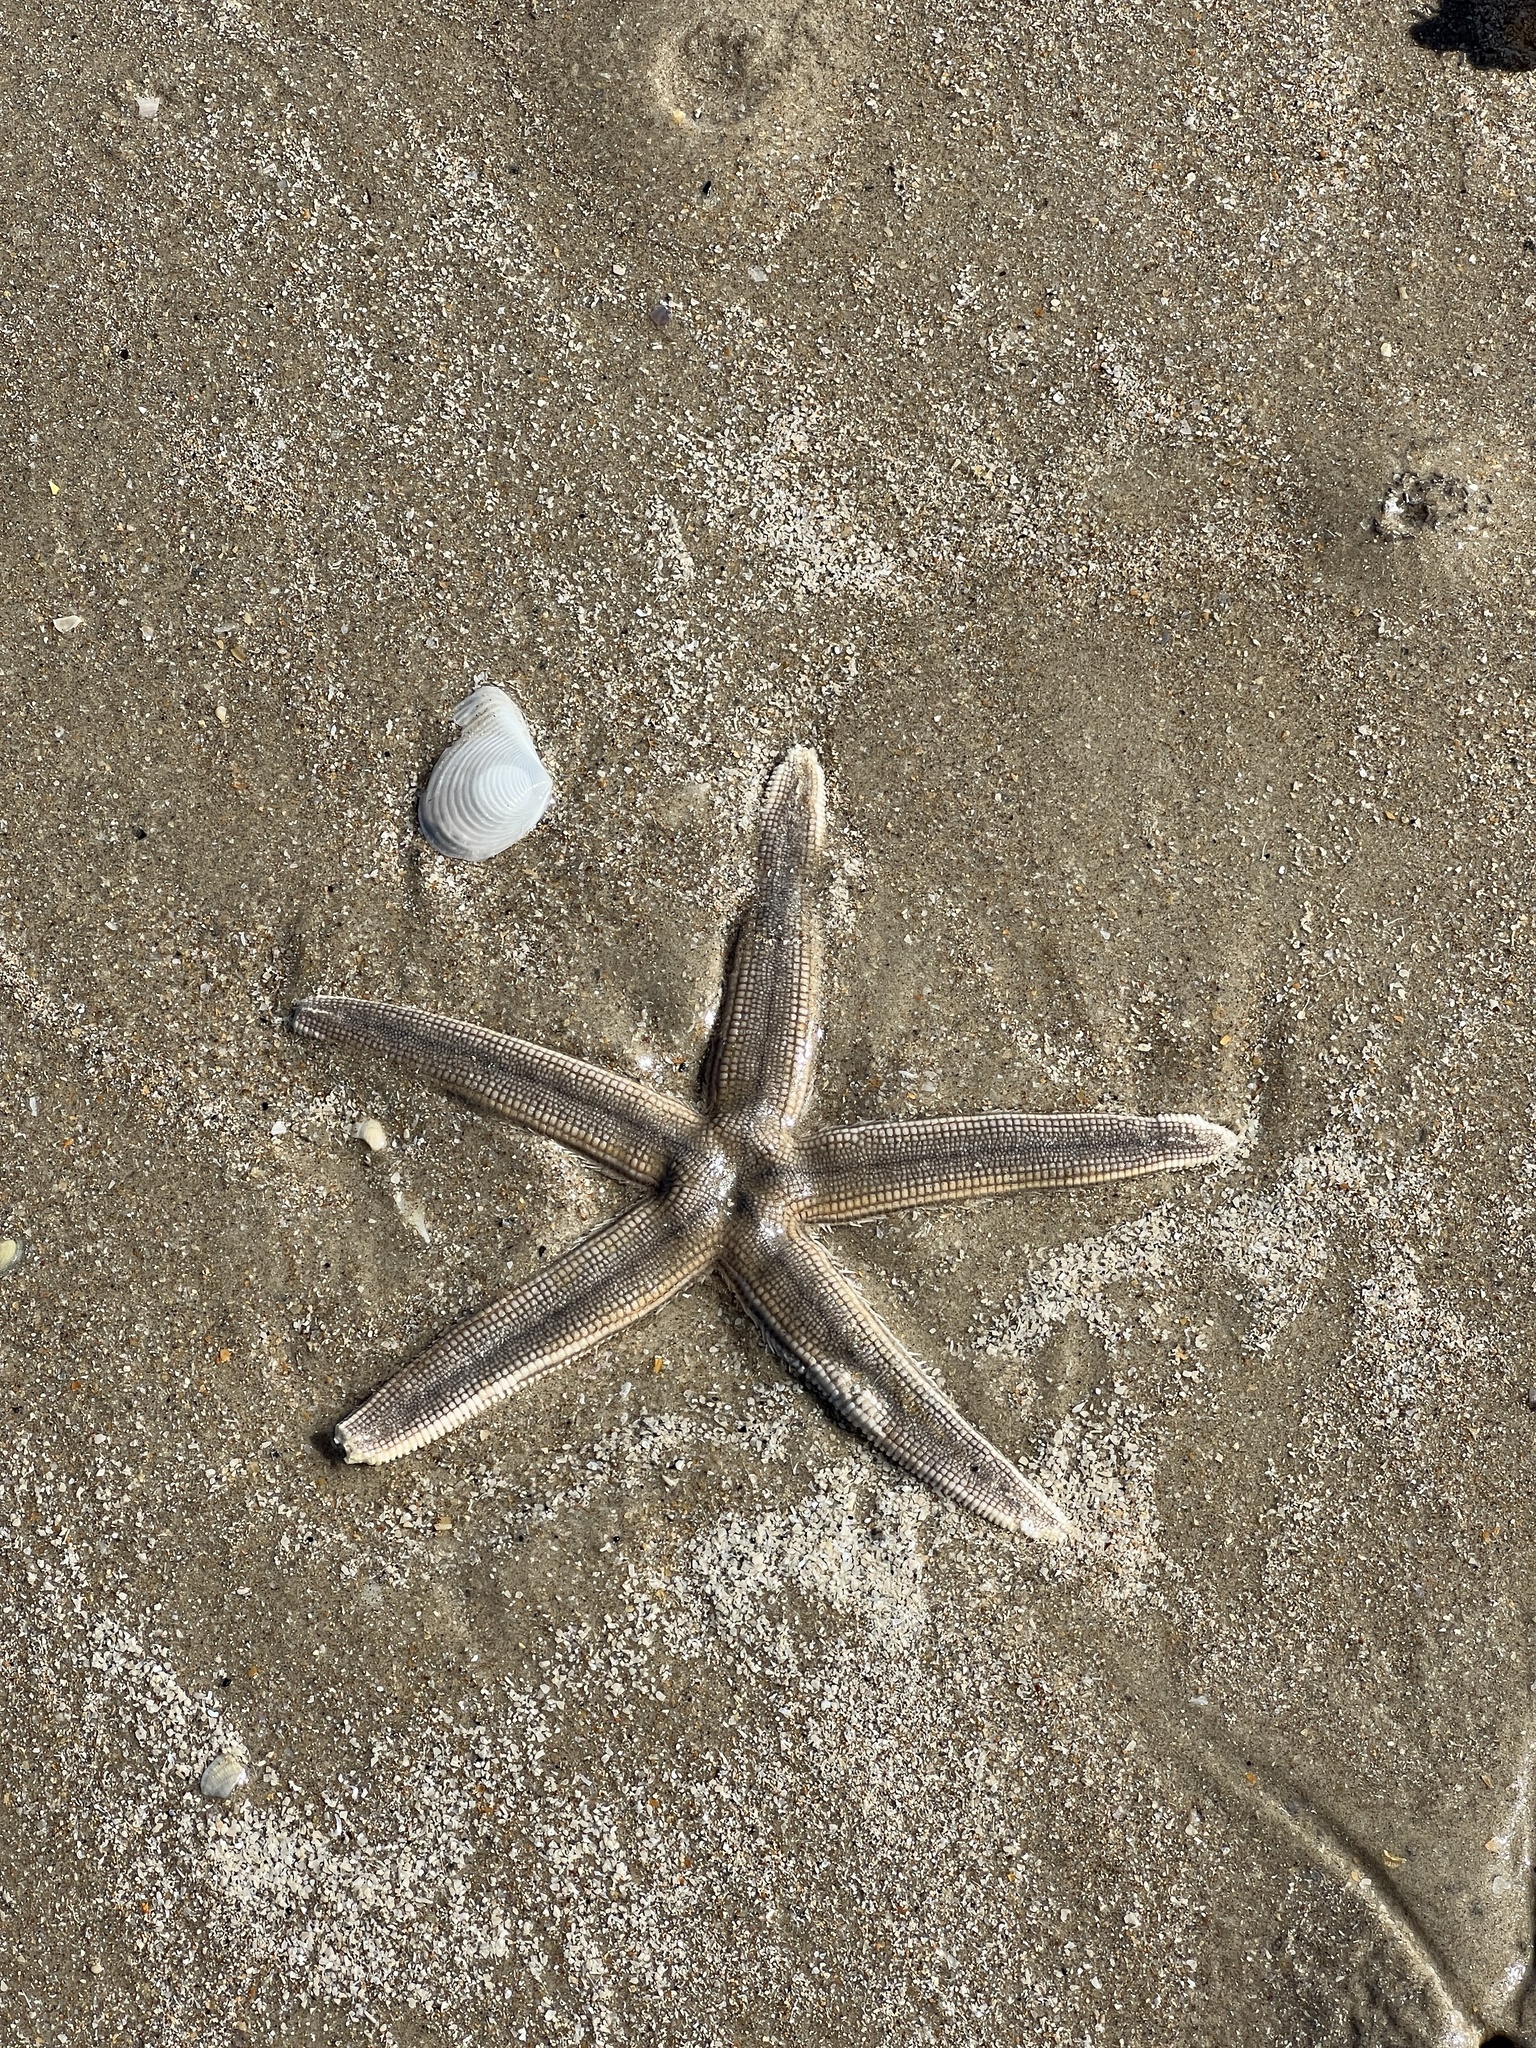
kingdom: Animalia
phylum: Echinodermata
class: Asteroidea
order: Paxillosida
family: Luidiidae
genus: Luidia
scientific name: Luidia clathrata
